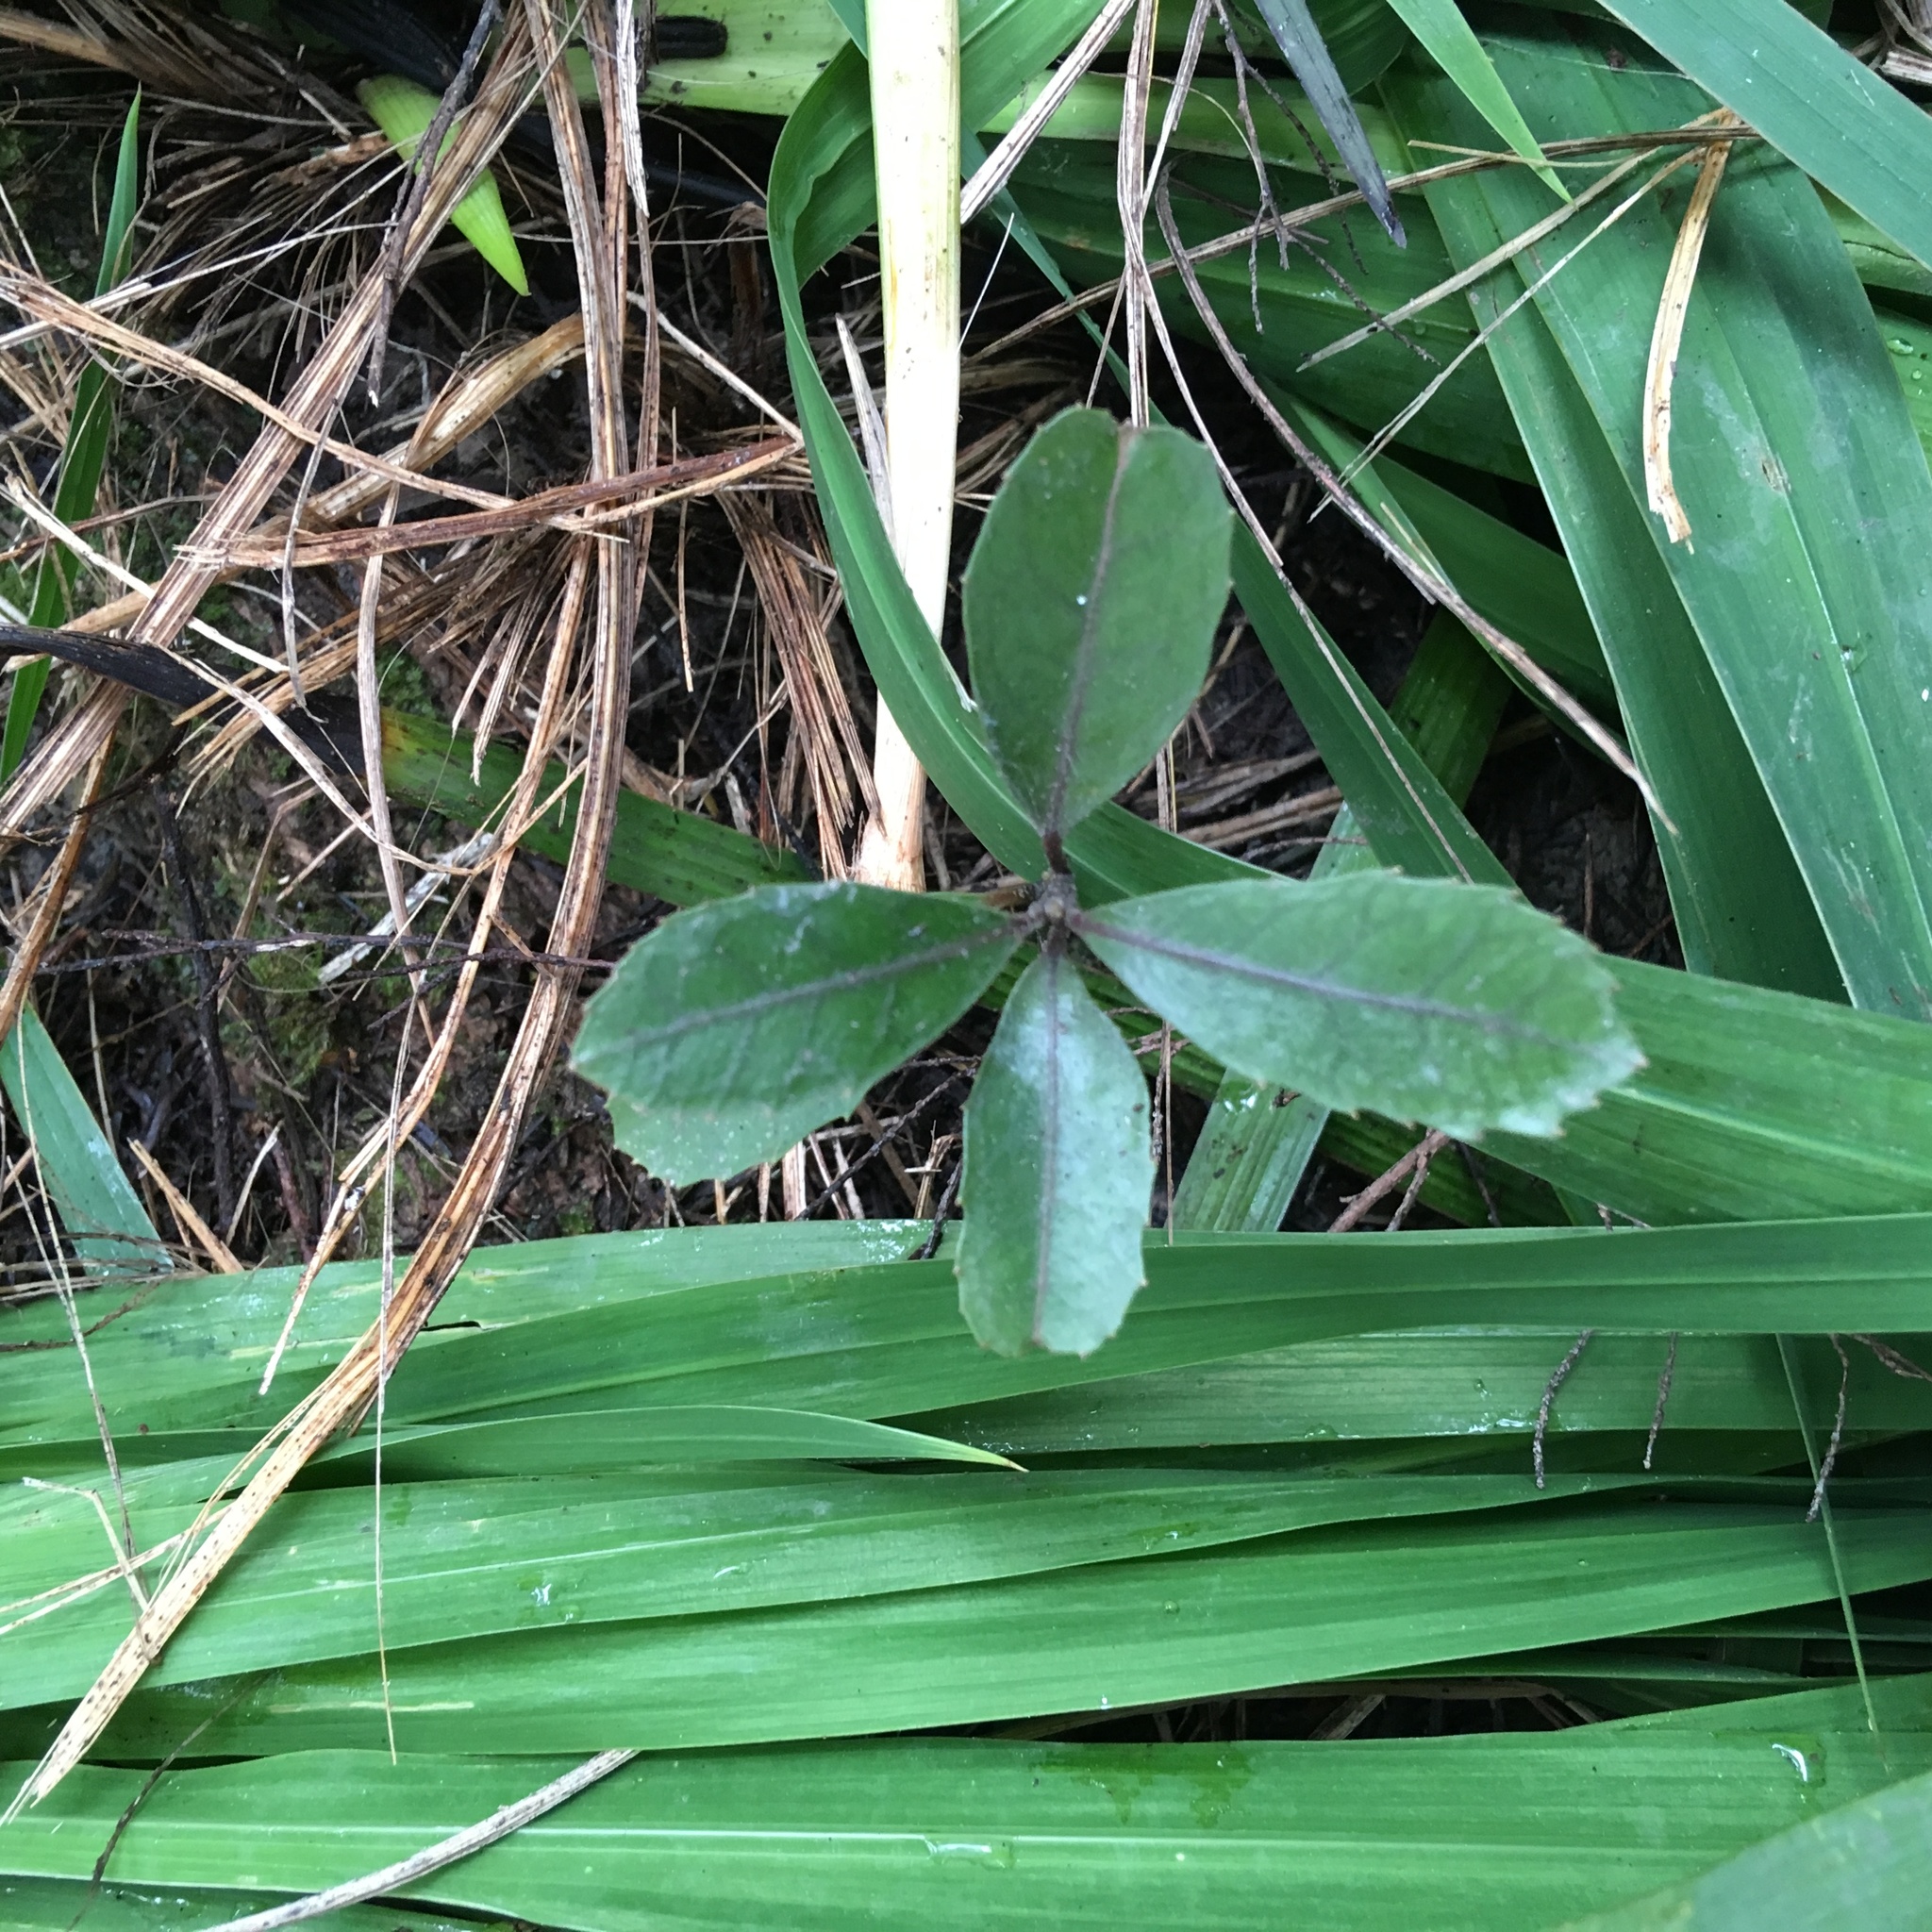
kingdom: Plantae
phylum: Tracheophyta
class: Magnoliopsida
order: Laurales
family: Monimiaceae
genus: Hedycarya
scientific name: Hedycarya arborea
